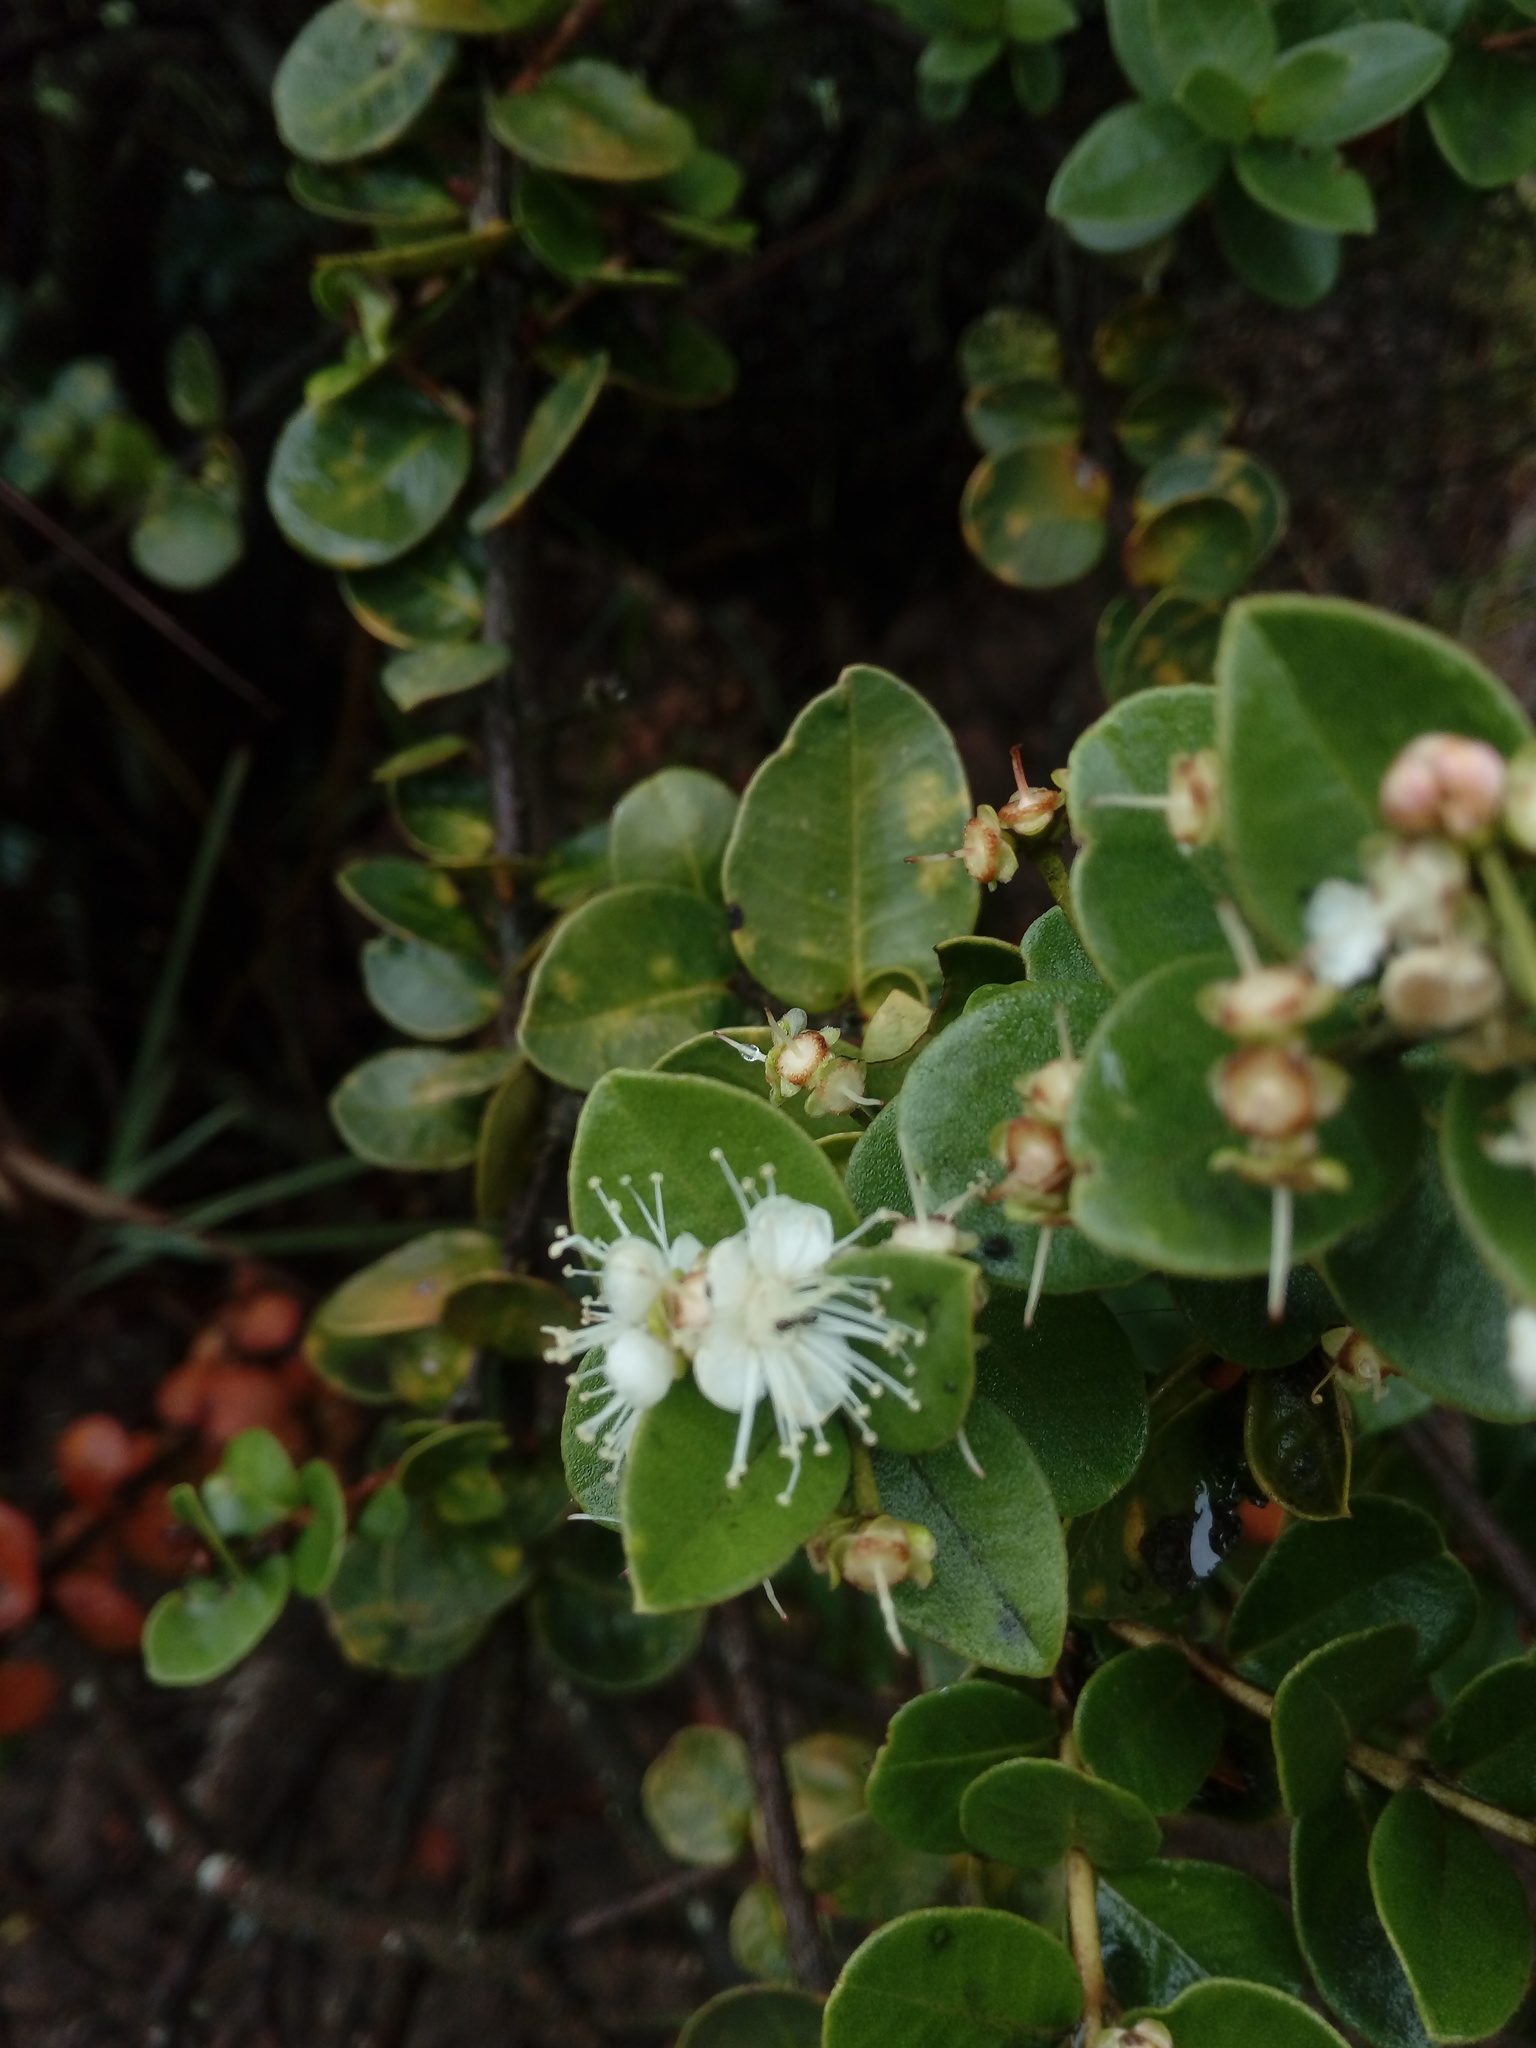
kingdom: Plantae
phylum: Tracheophyta
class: Magnoliopsida
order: Myrtales
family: Myrtaceae
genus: Myrcianthes
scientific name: Myrcianthes leucoxyla
